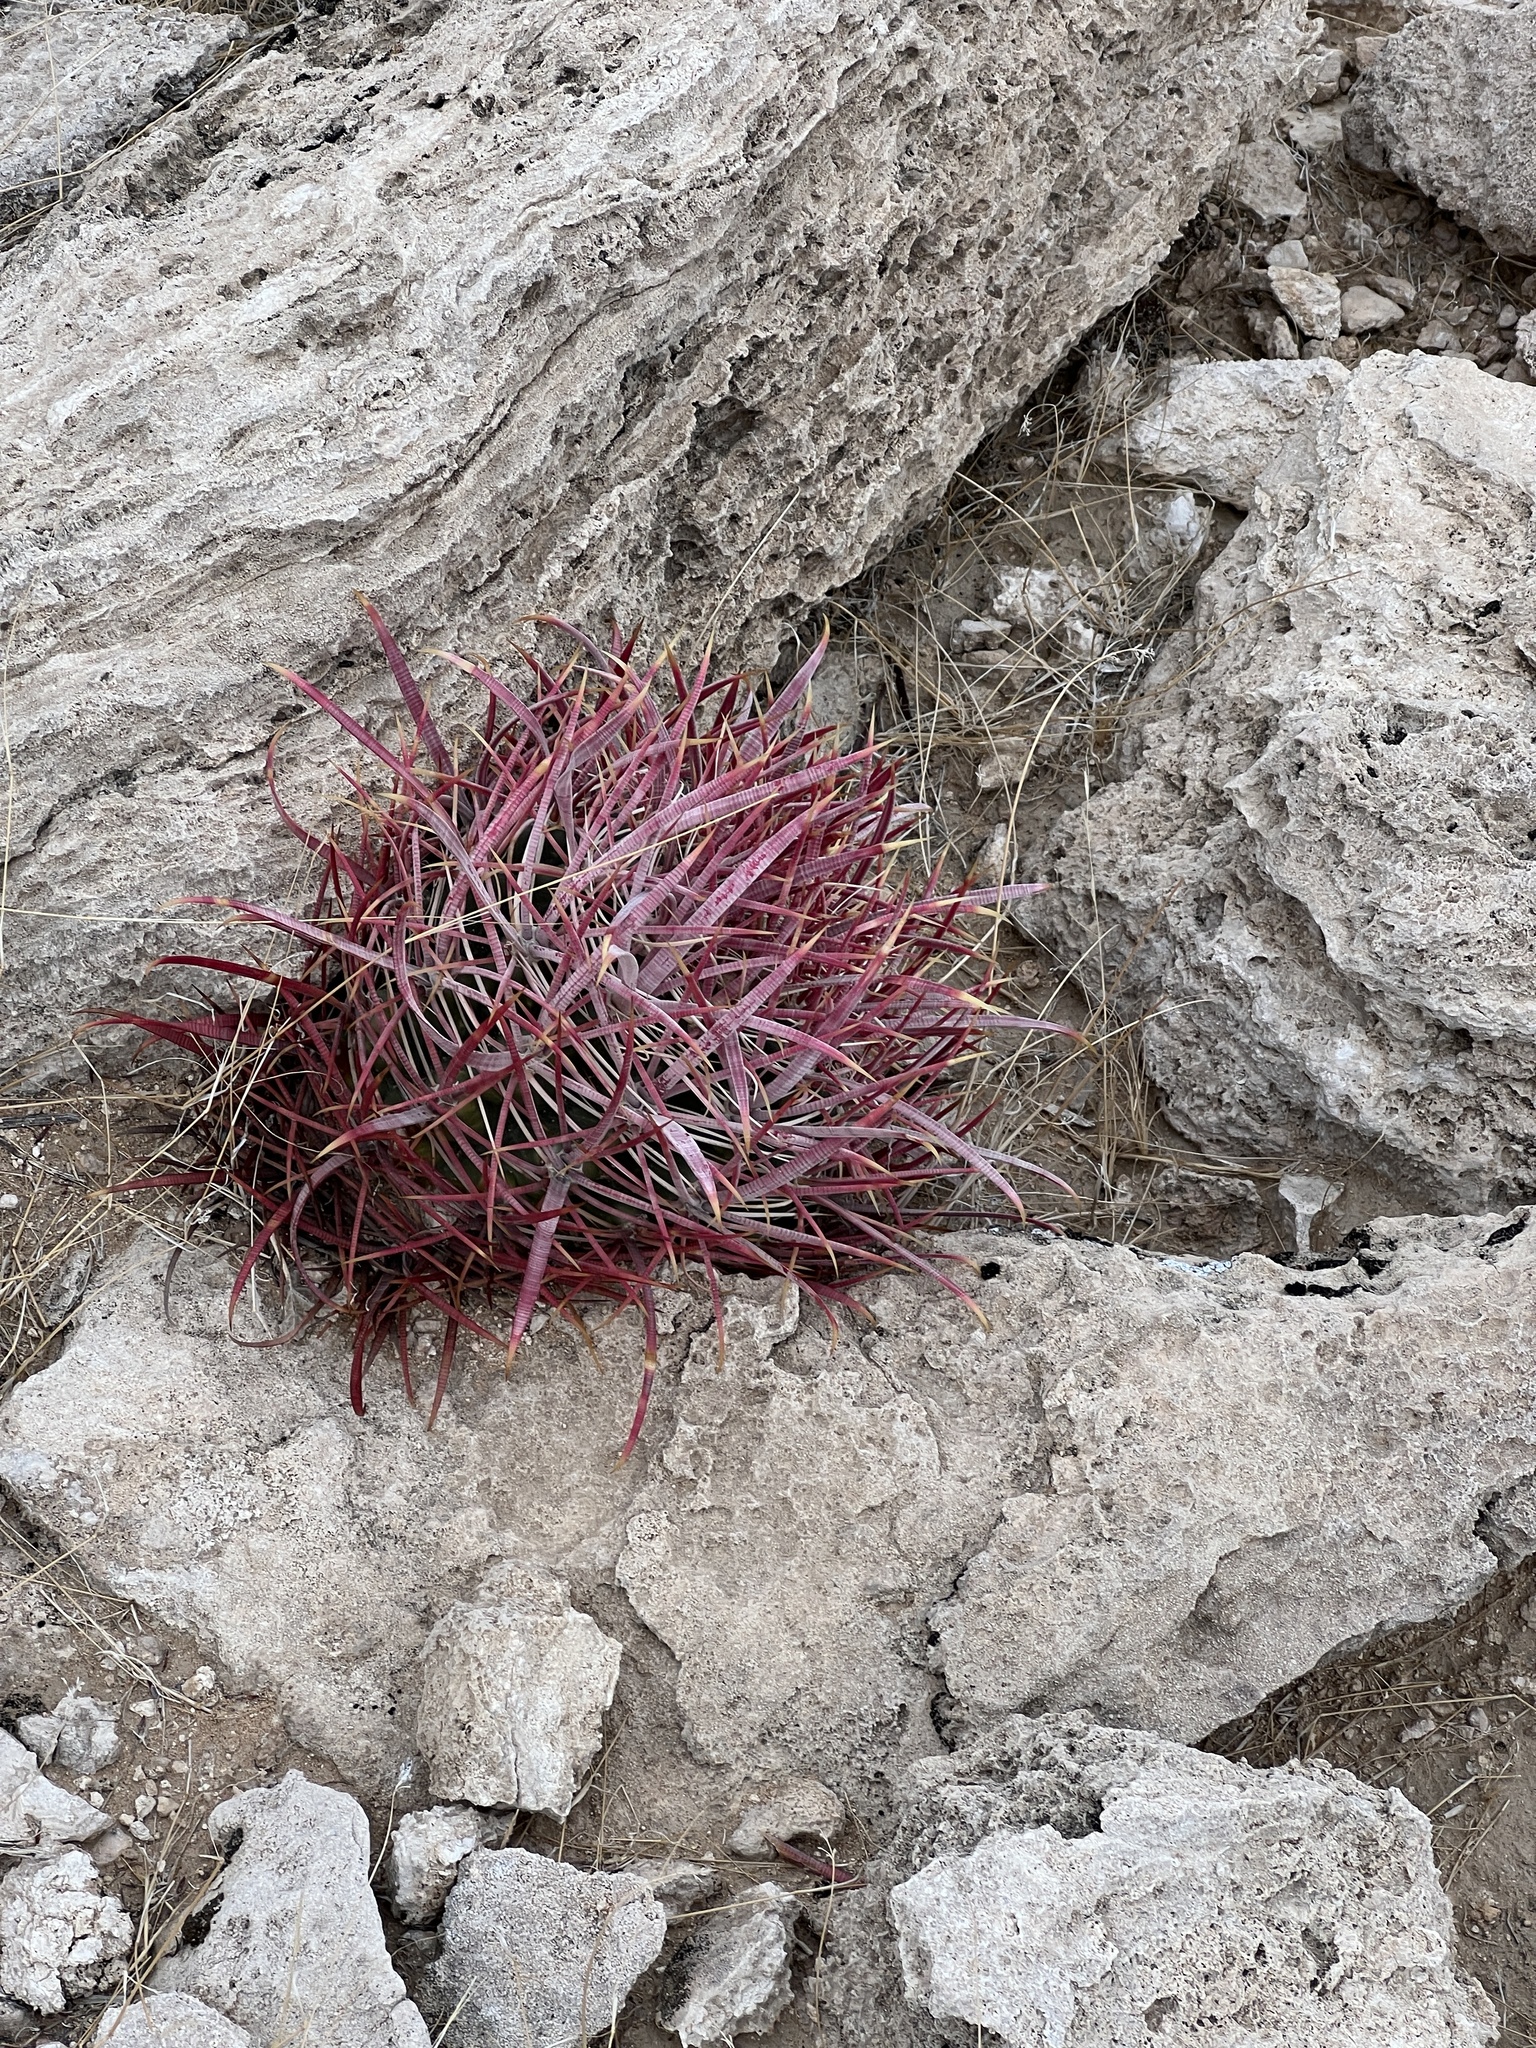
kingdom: Plantae
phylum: Tracheophyta
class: Magnoliopsida
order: Caryophyllales
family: Cactaceae
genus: Ferocactus
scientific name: Ferocactus cylindraceus
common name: California barrel cactus
